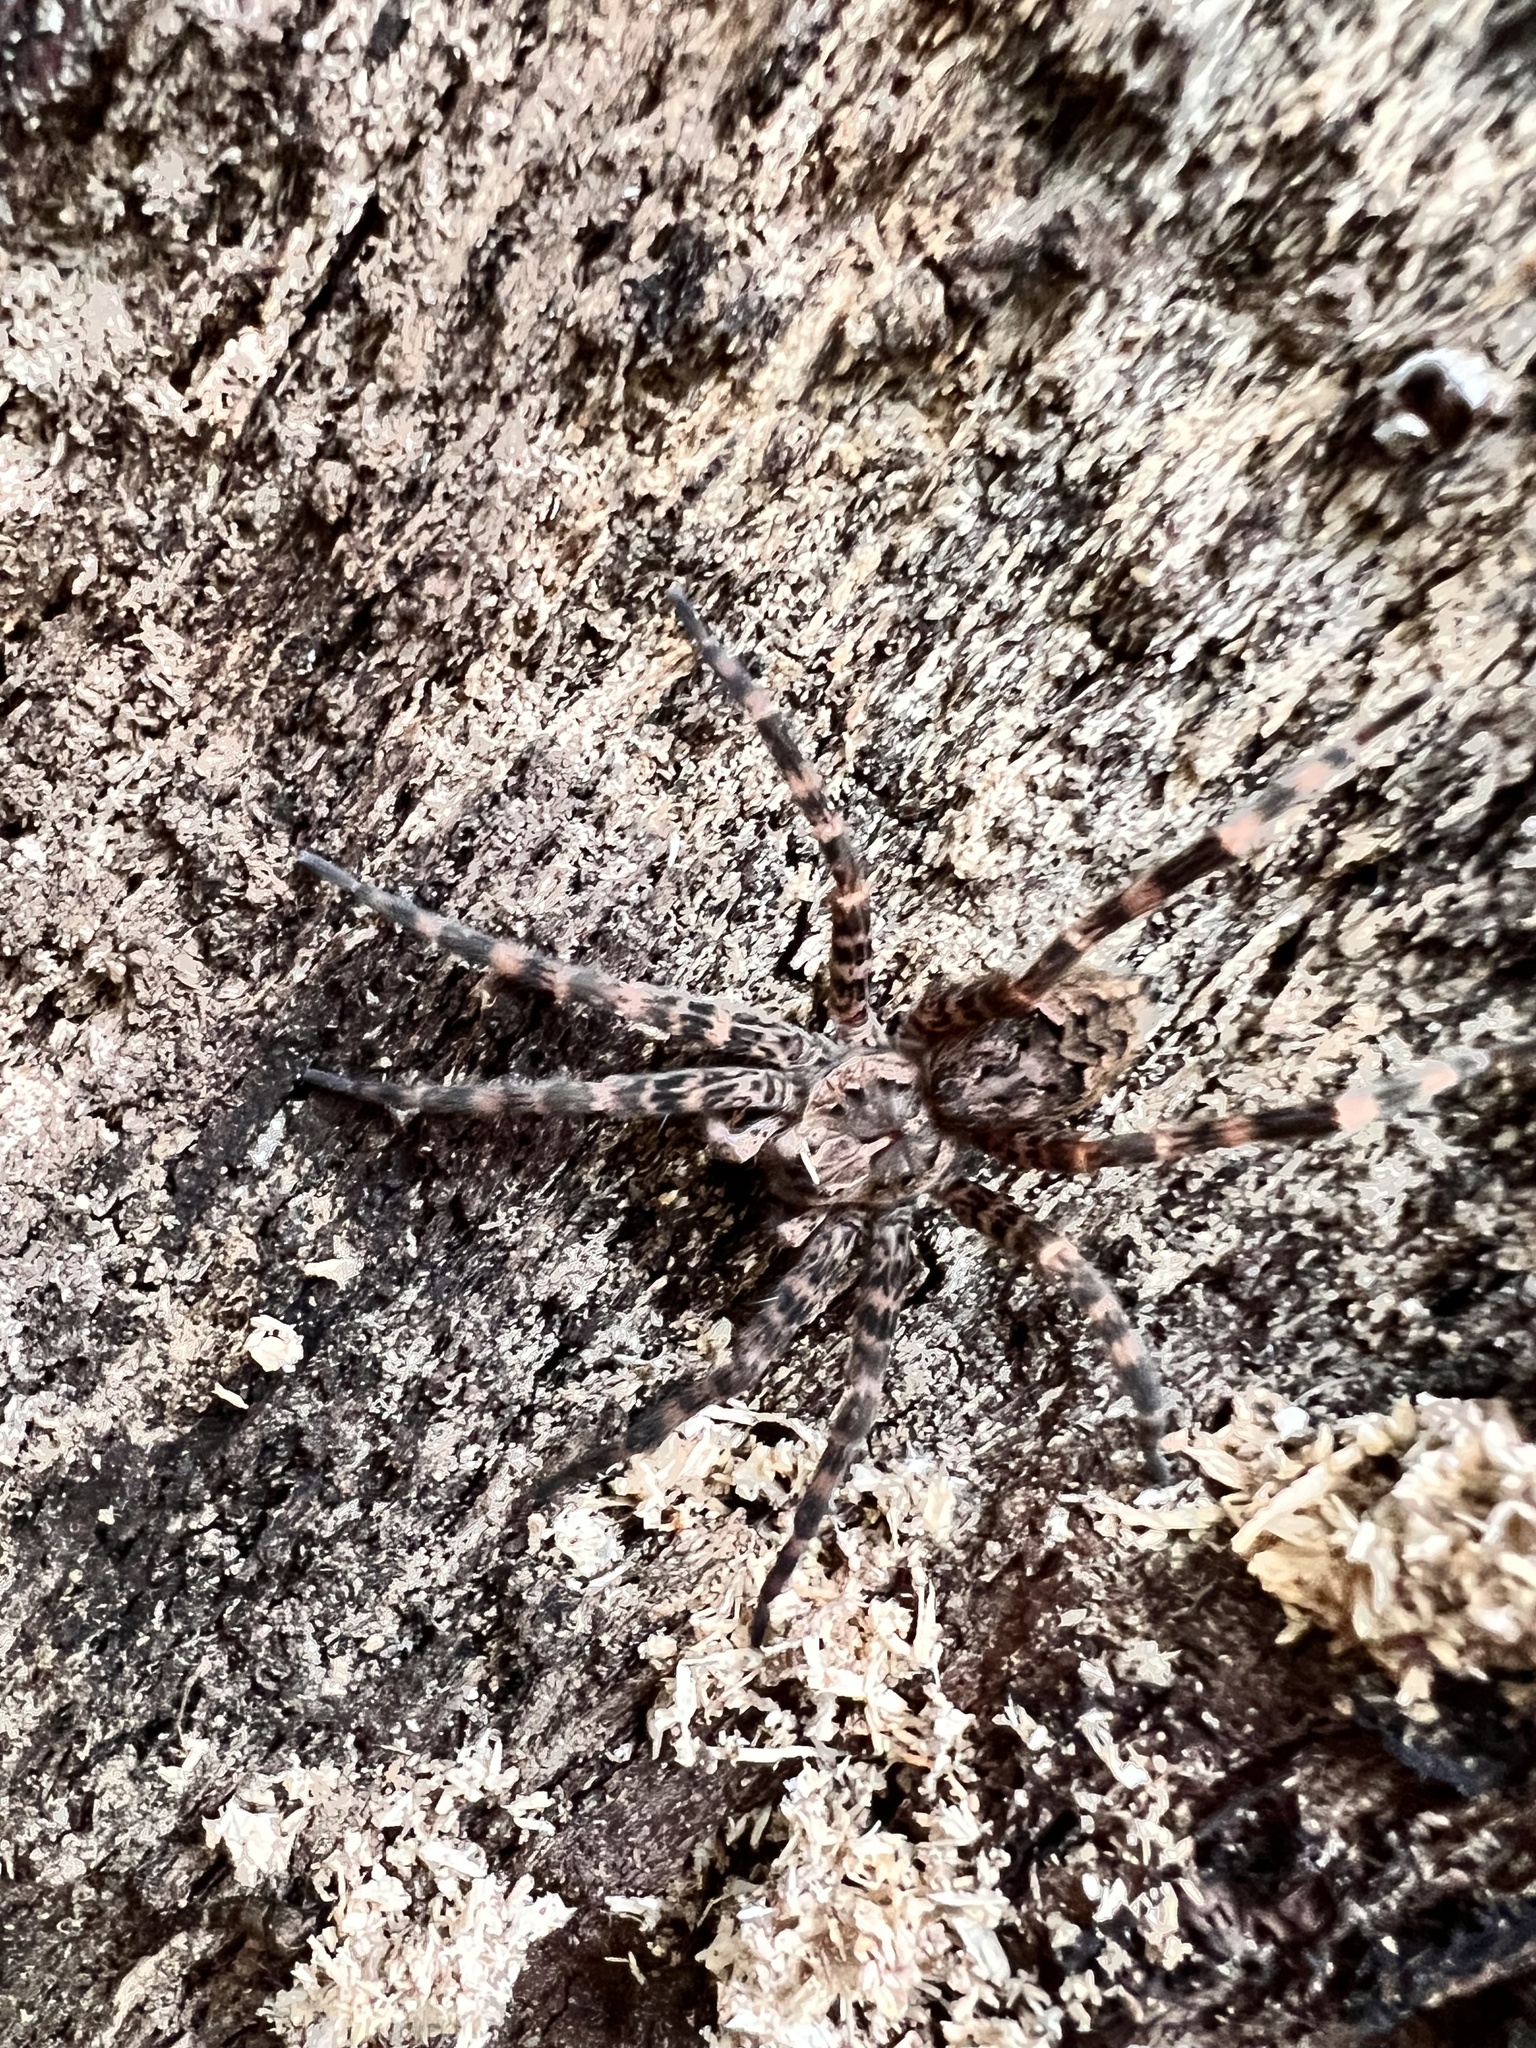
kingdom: Animalia
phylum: Arthropoda
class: Arachnida
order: Araneae
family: Pisauridae
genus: Dolomedes
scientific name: Dolomedes tenebrosus
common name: Dark fishing spider
